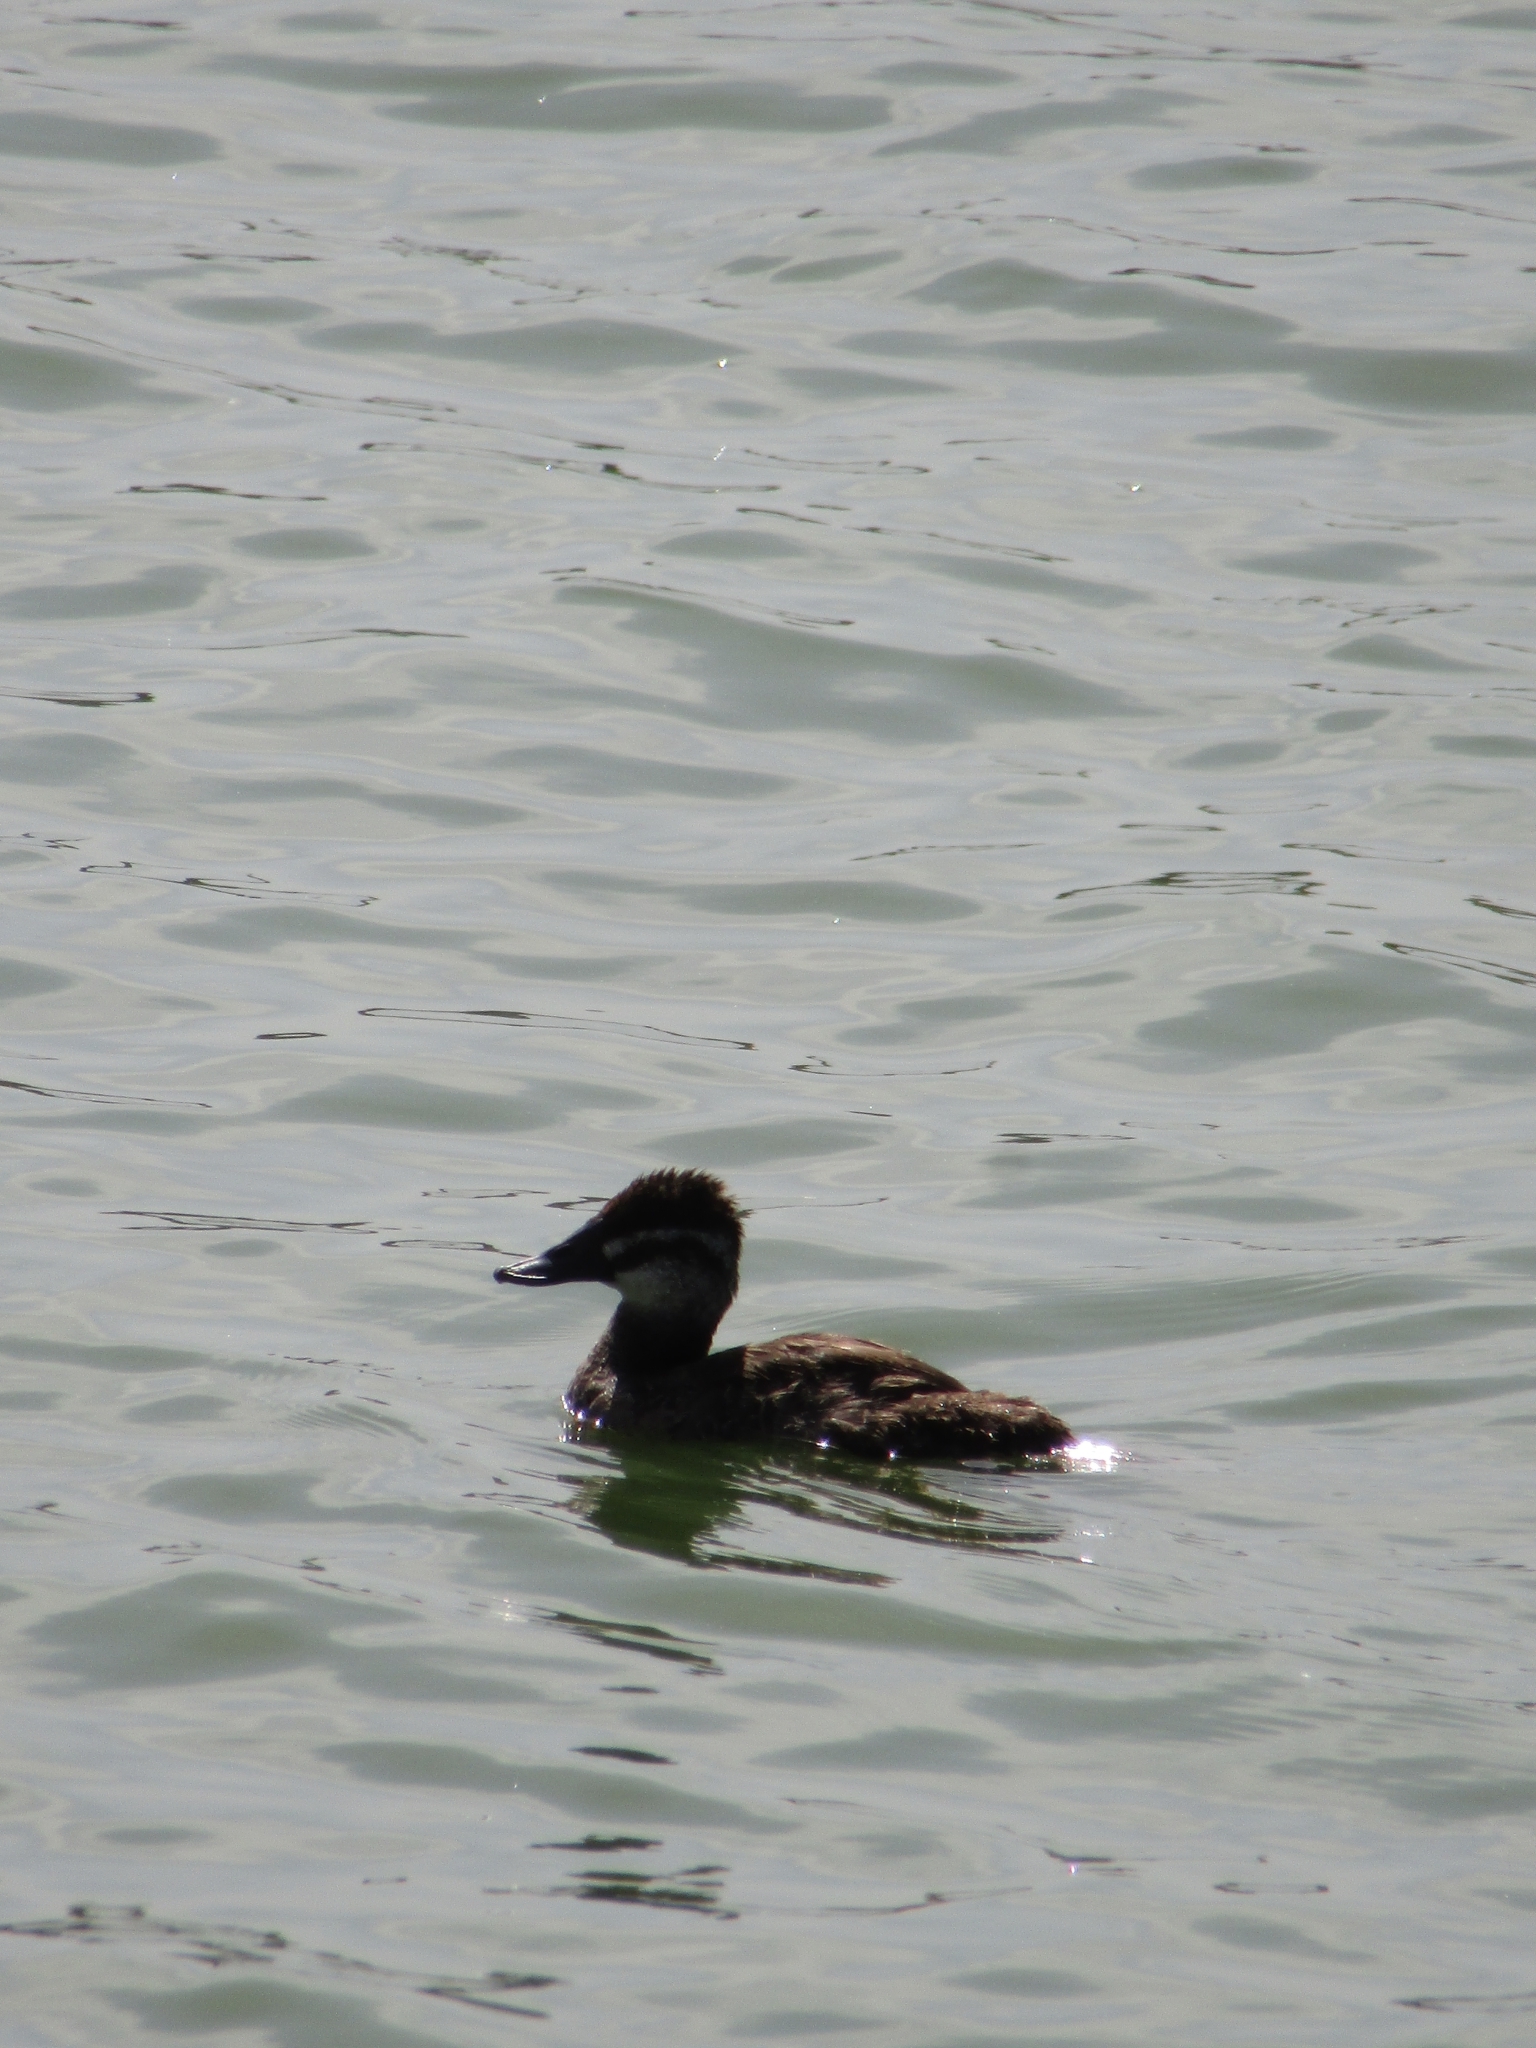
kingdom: Animalia
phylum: Chordata
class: Aves
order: Anseriformes
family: Anatidae
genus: Oxyura
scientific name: Oxyura vittata
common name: Lake duck
